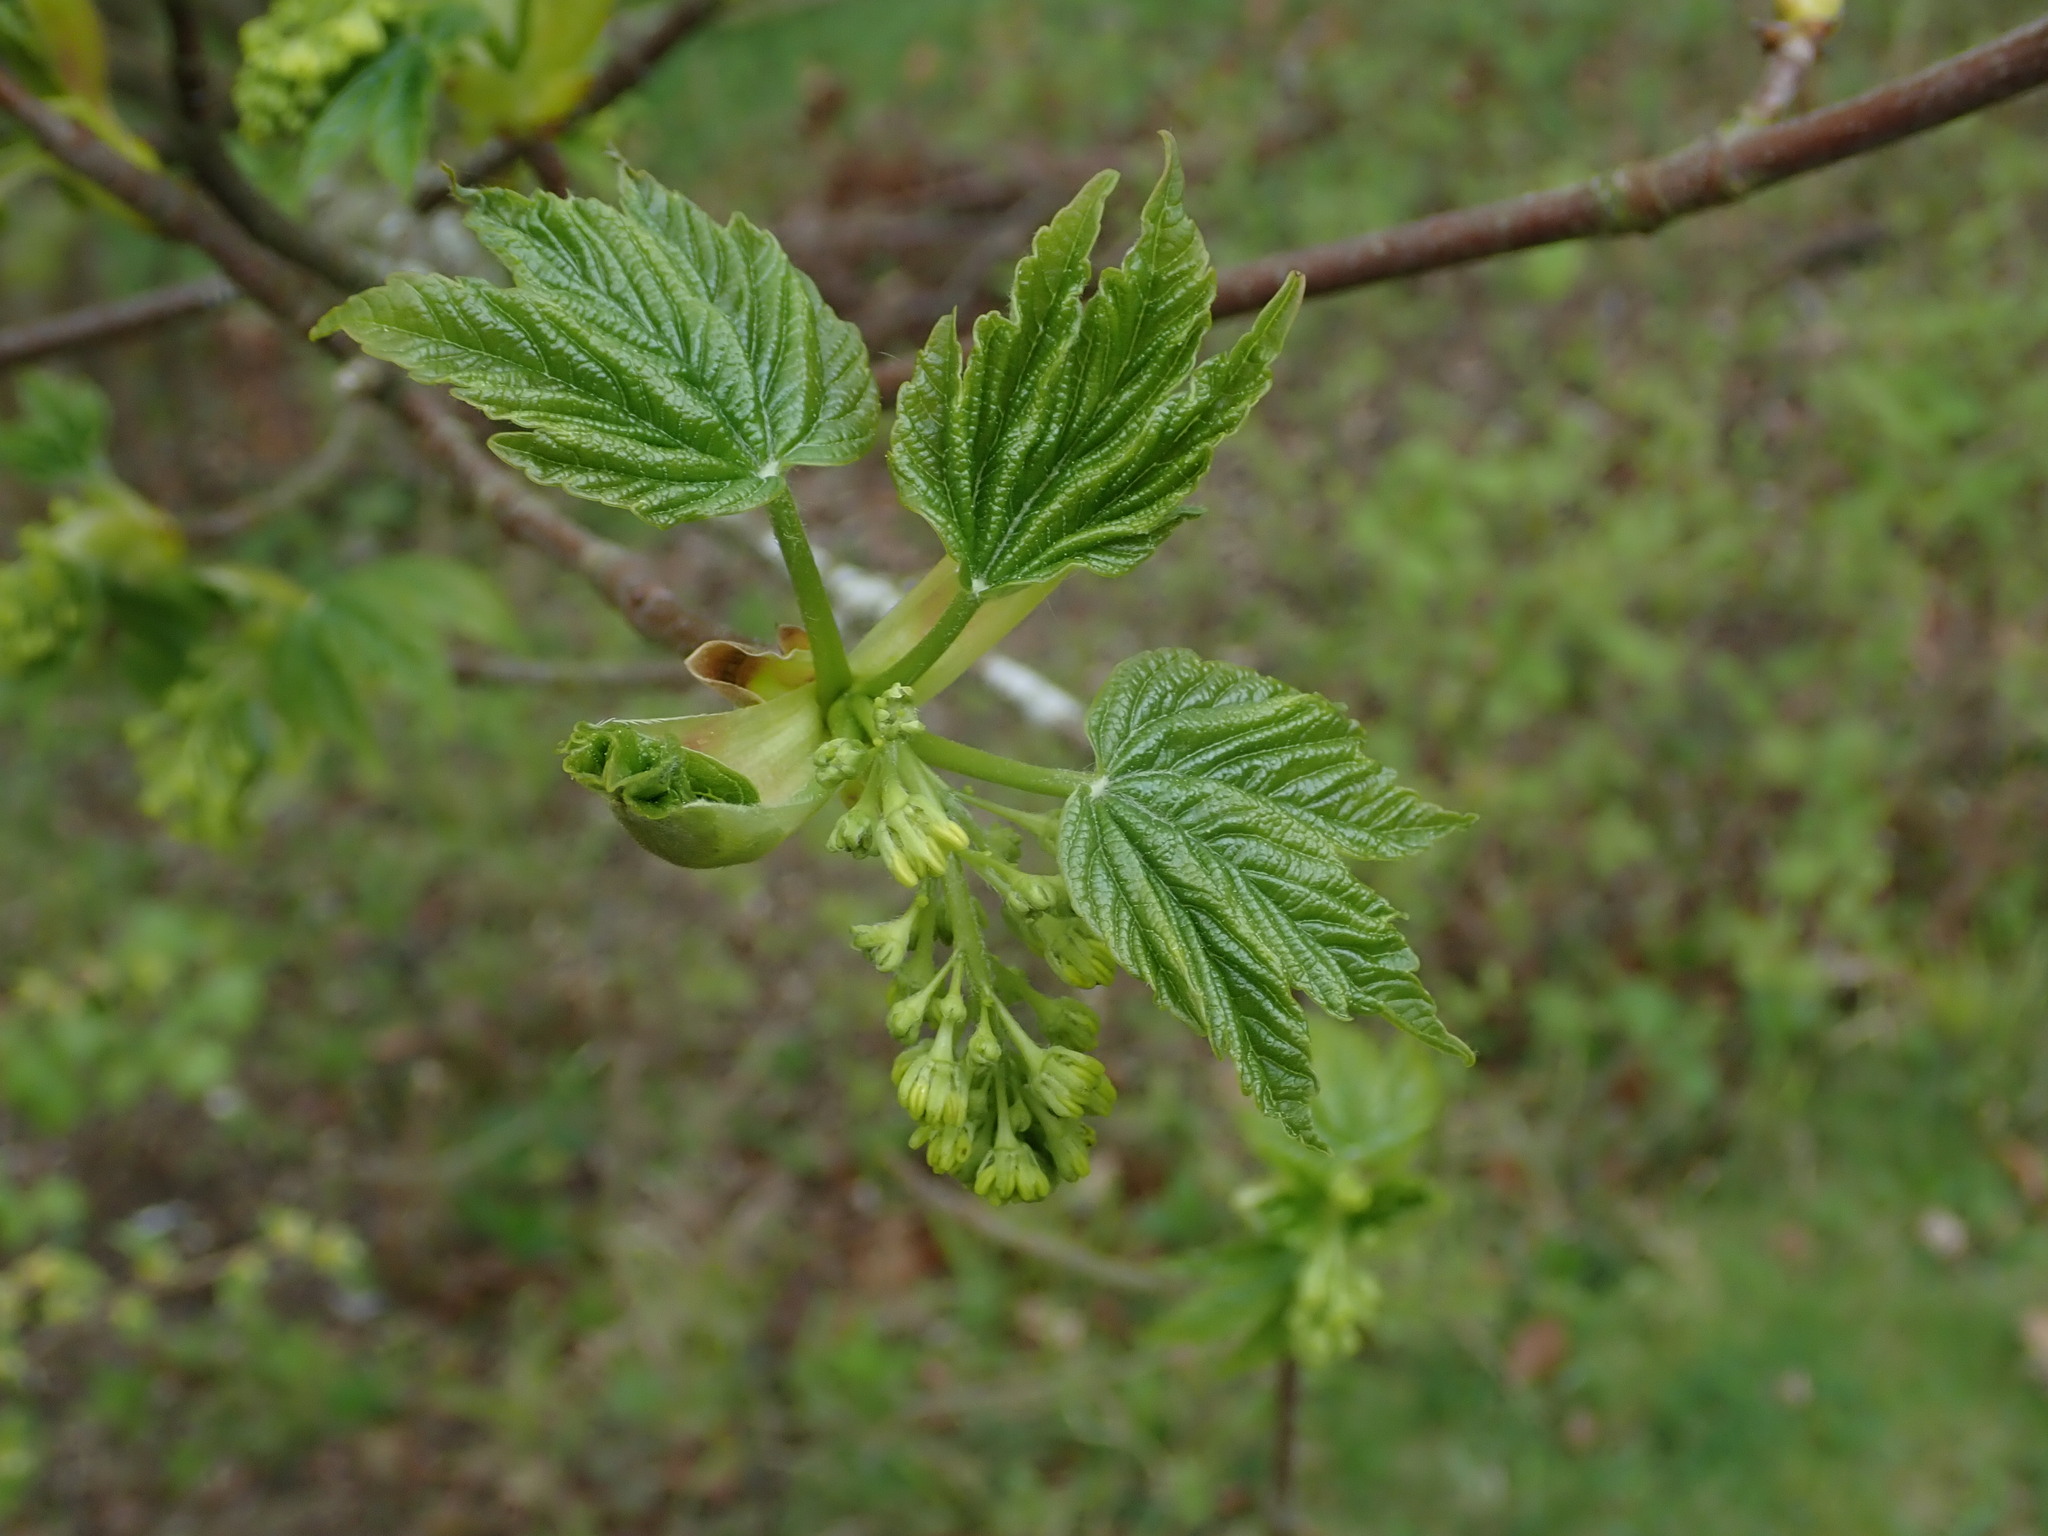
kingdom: Plantae
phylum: Tracheophyta
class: Magnoliopsida
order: Sapindales
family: Sapindaceae
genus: Acer
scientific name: Acer pseudoplatanus
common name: Sycamore
